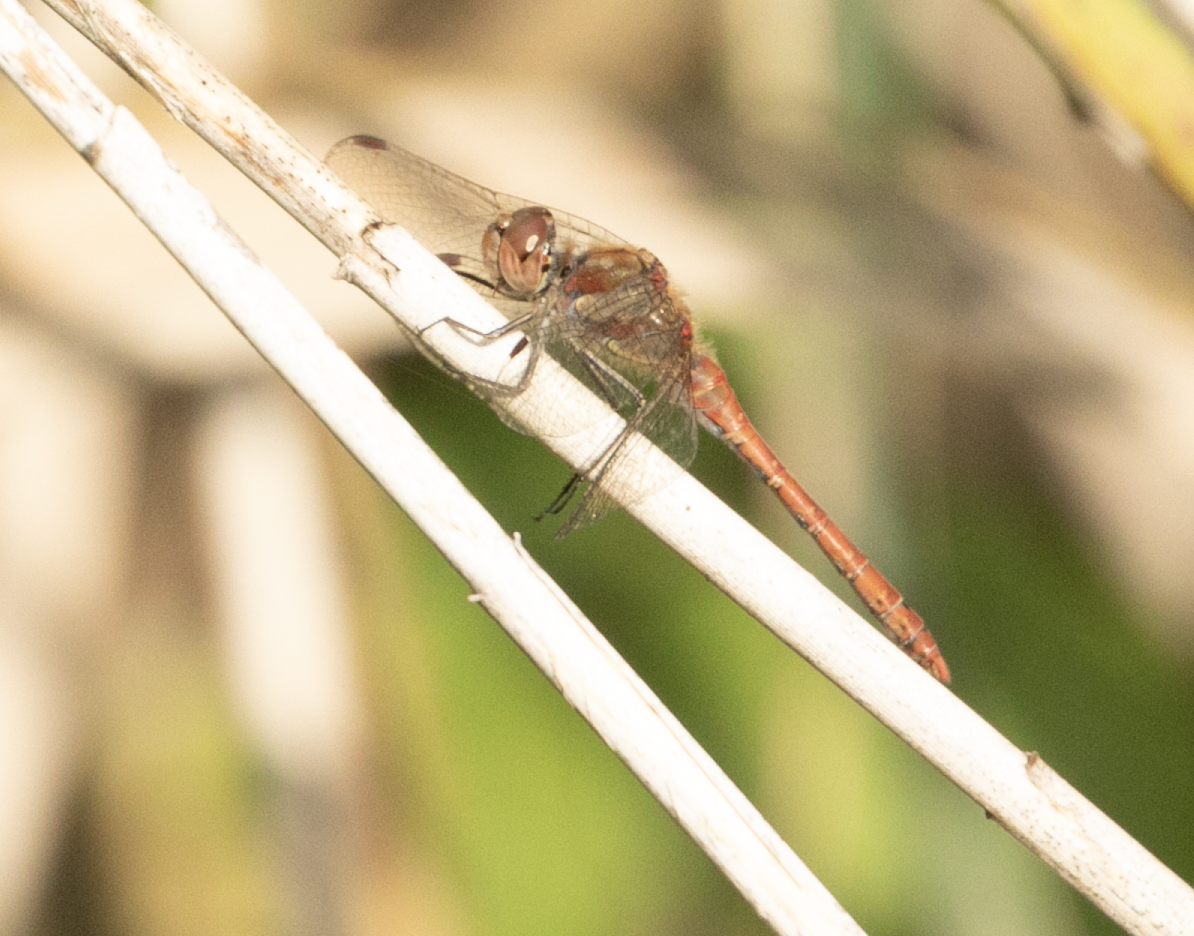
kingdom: Animalia
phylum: Arthropoda
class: Insecta
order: Odonata
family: Libellulidae
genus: Sympetrum
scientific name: Sympetrum striolatum
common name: Common darter
